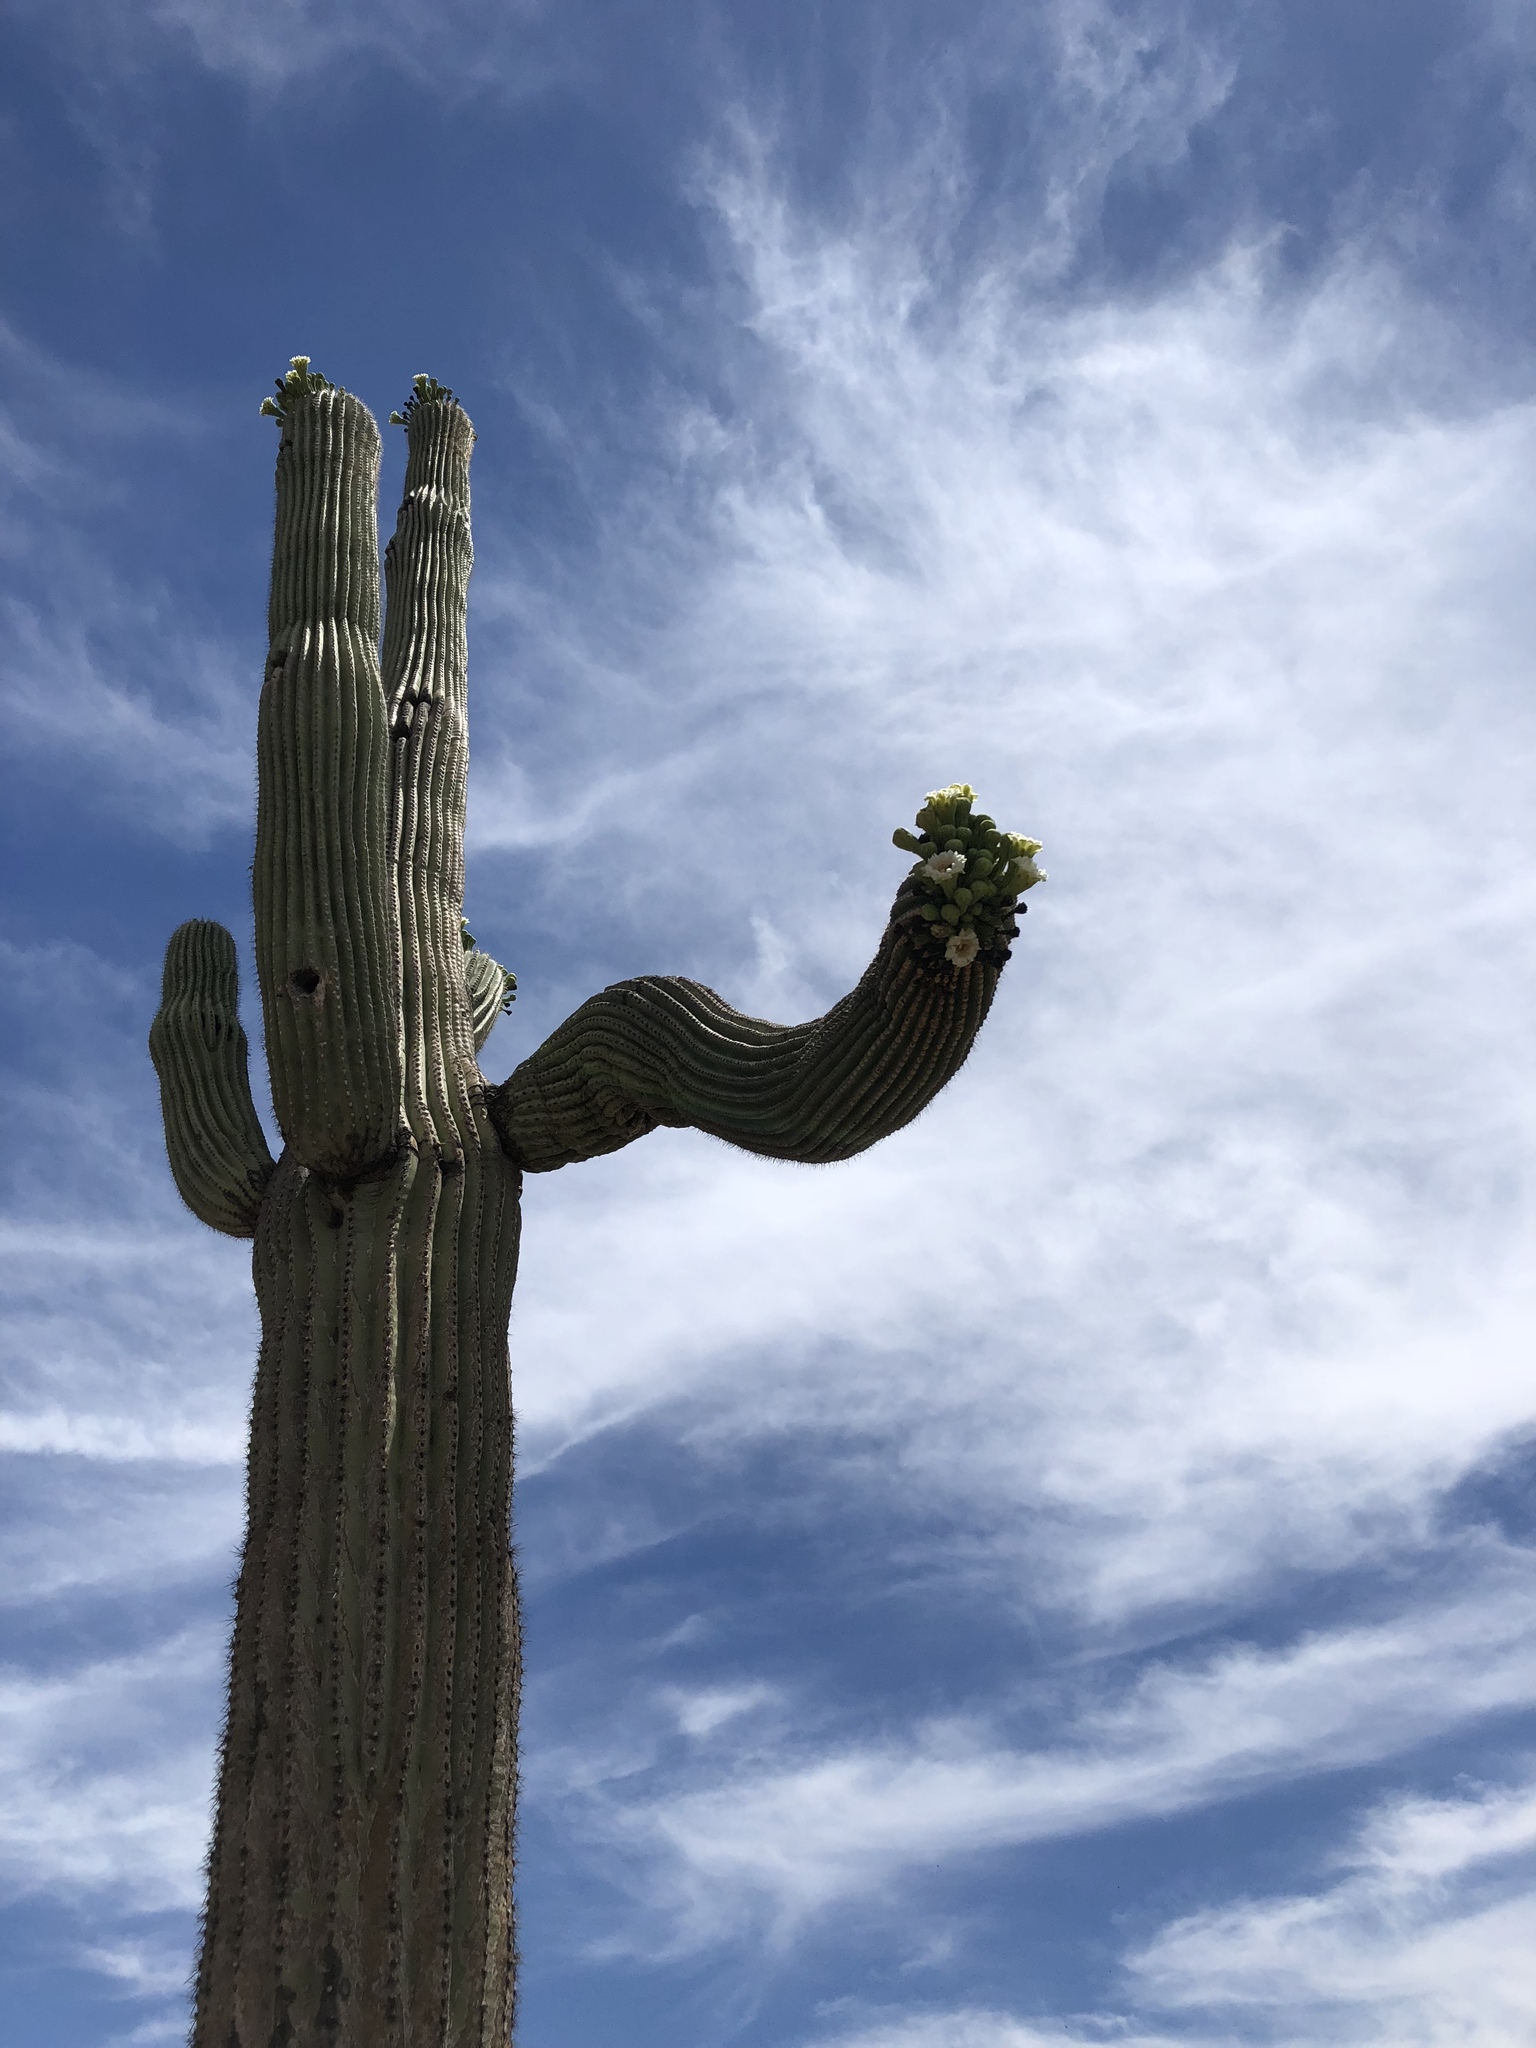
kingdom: Plantae
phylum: Tracheophyta
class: Magnoliopsida
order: Caryophyllales
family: Cactaceae
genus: Carnegiea
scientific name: Carnegiea gigantea
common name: Saguaro
